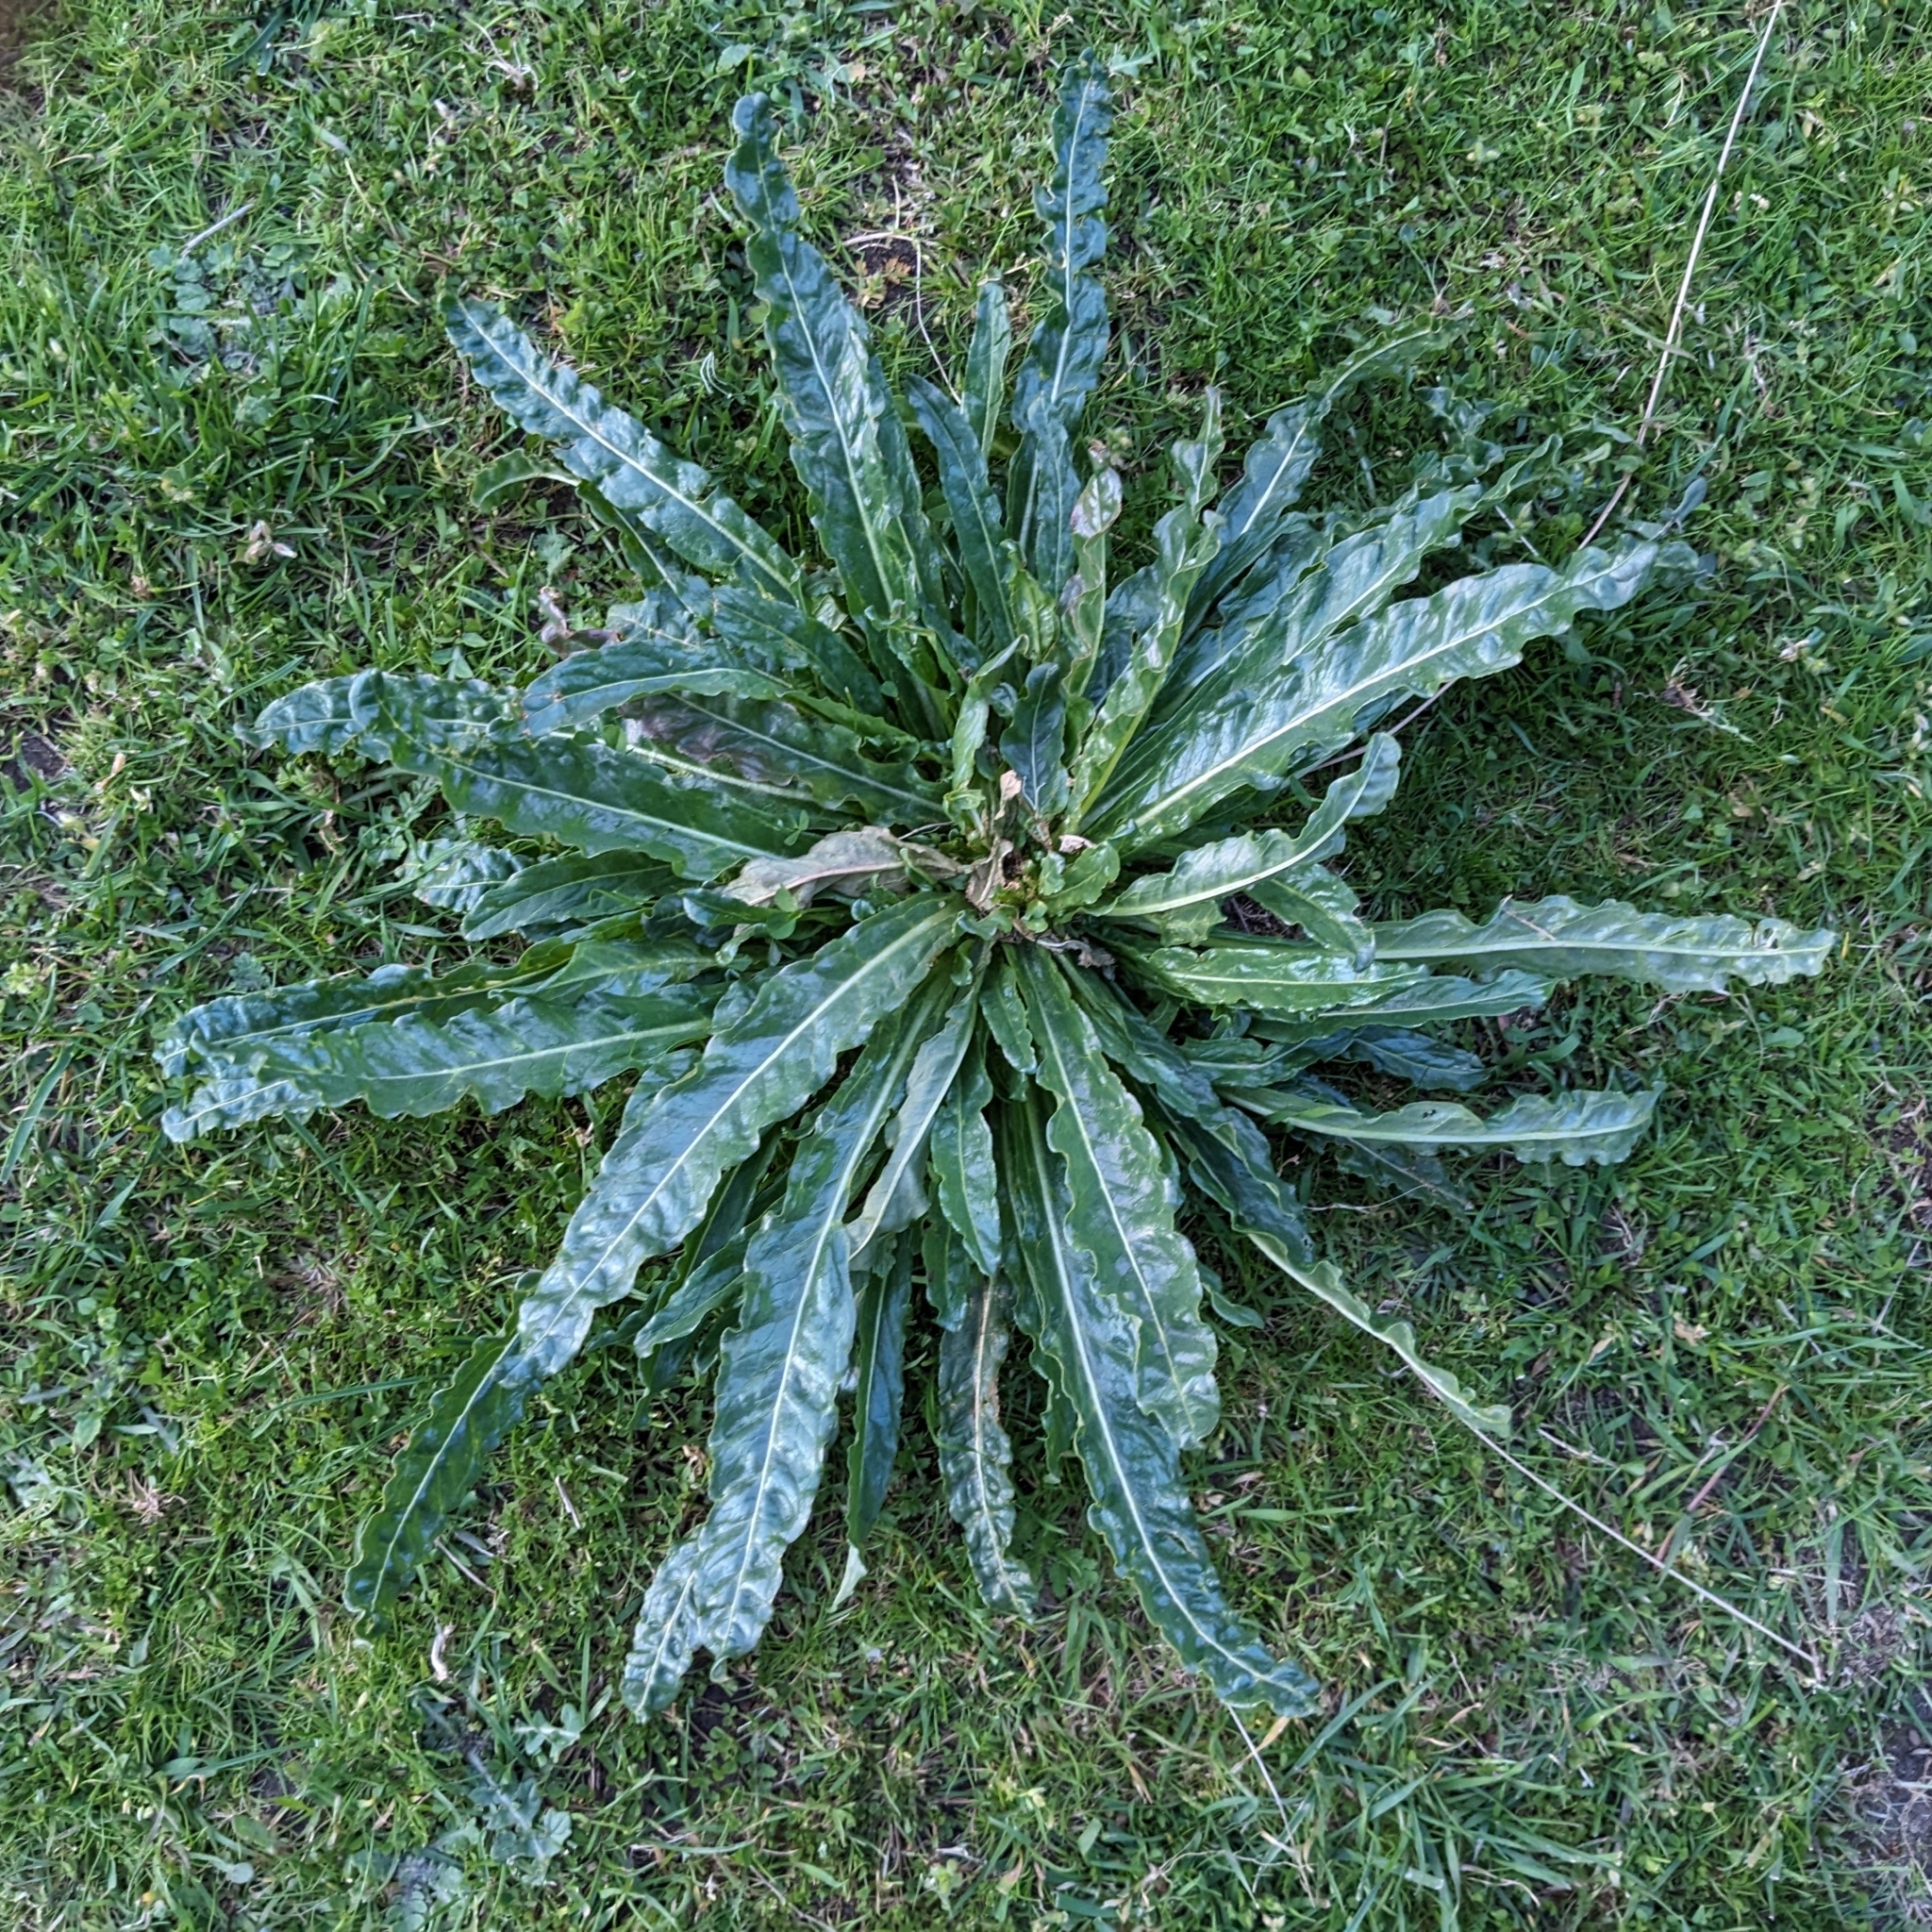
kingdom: Plantae
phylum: Tracheophyta
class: Magnoliopsida
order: Brassicales
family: Resedaceae
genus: Reseda
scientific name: Reseda luteola
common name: Weld
